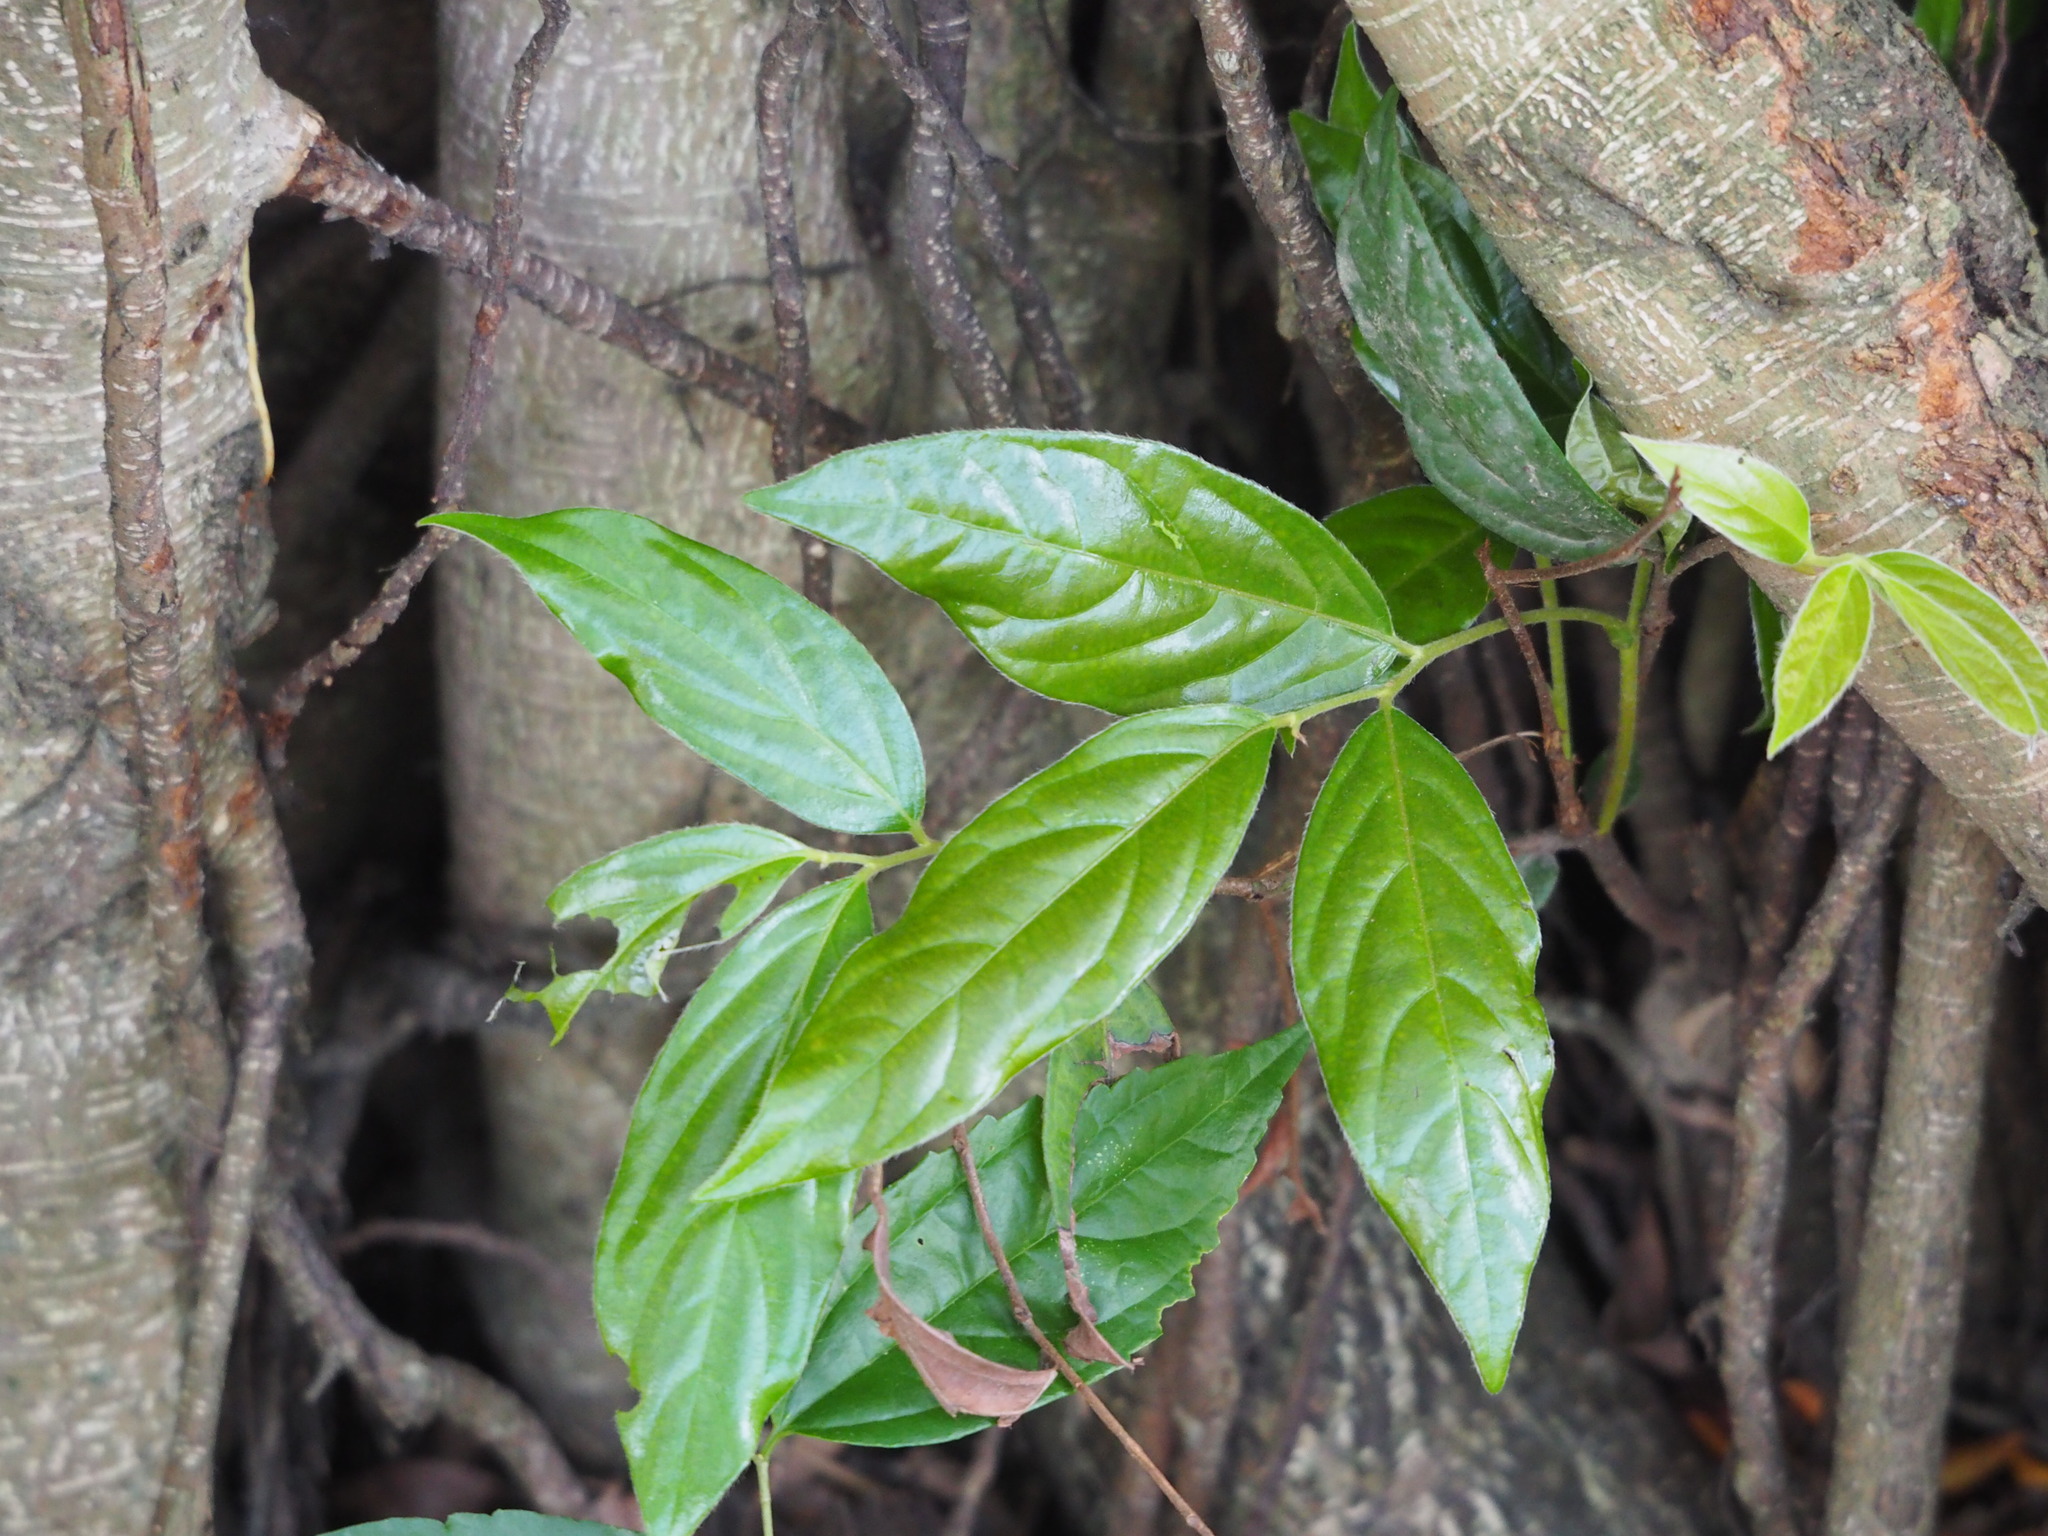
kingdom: Plantae
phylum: Tracheophyta
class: Magnoliopsida
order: Ericales
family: Ebenaceae
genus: Diospyros
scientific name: Diospyros eriantha
